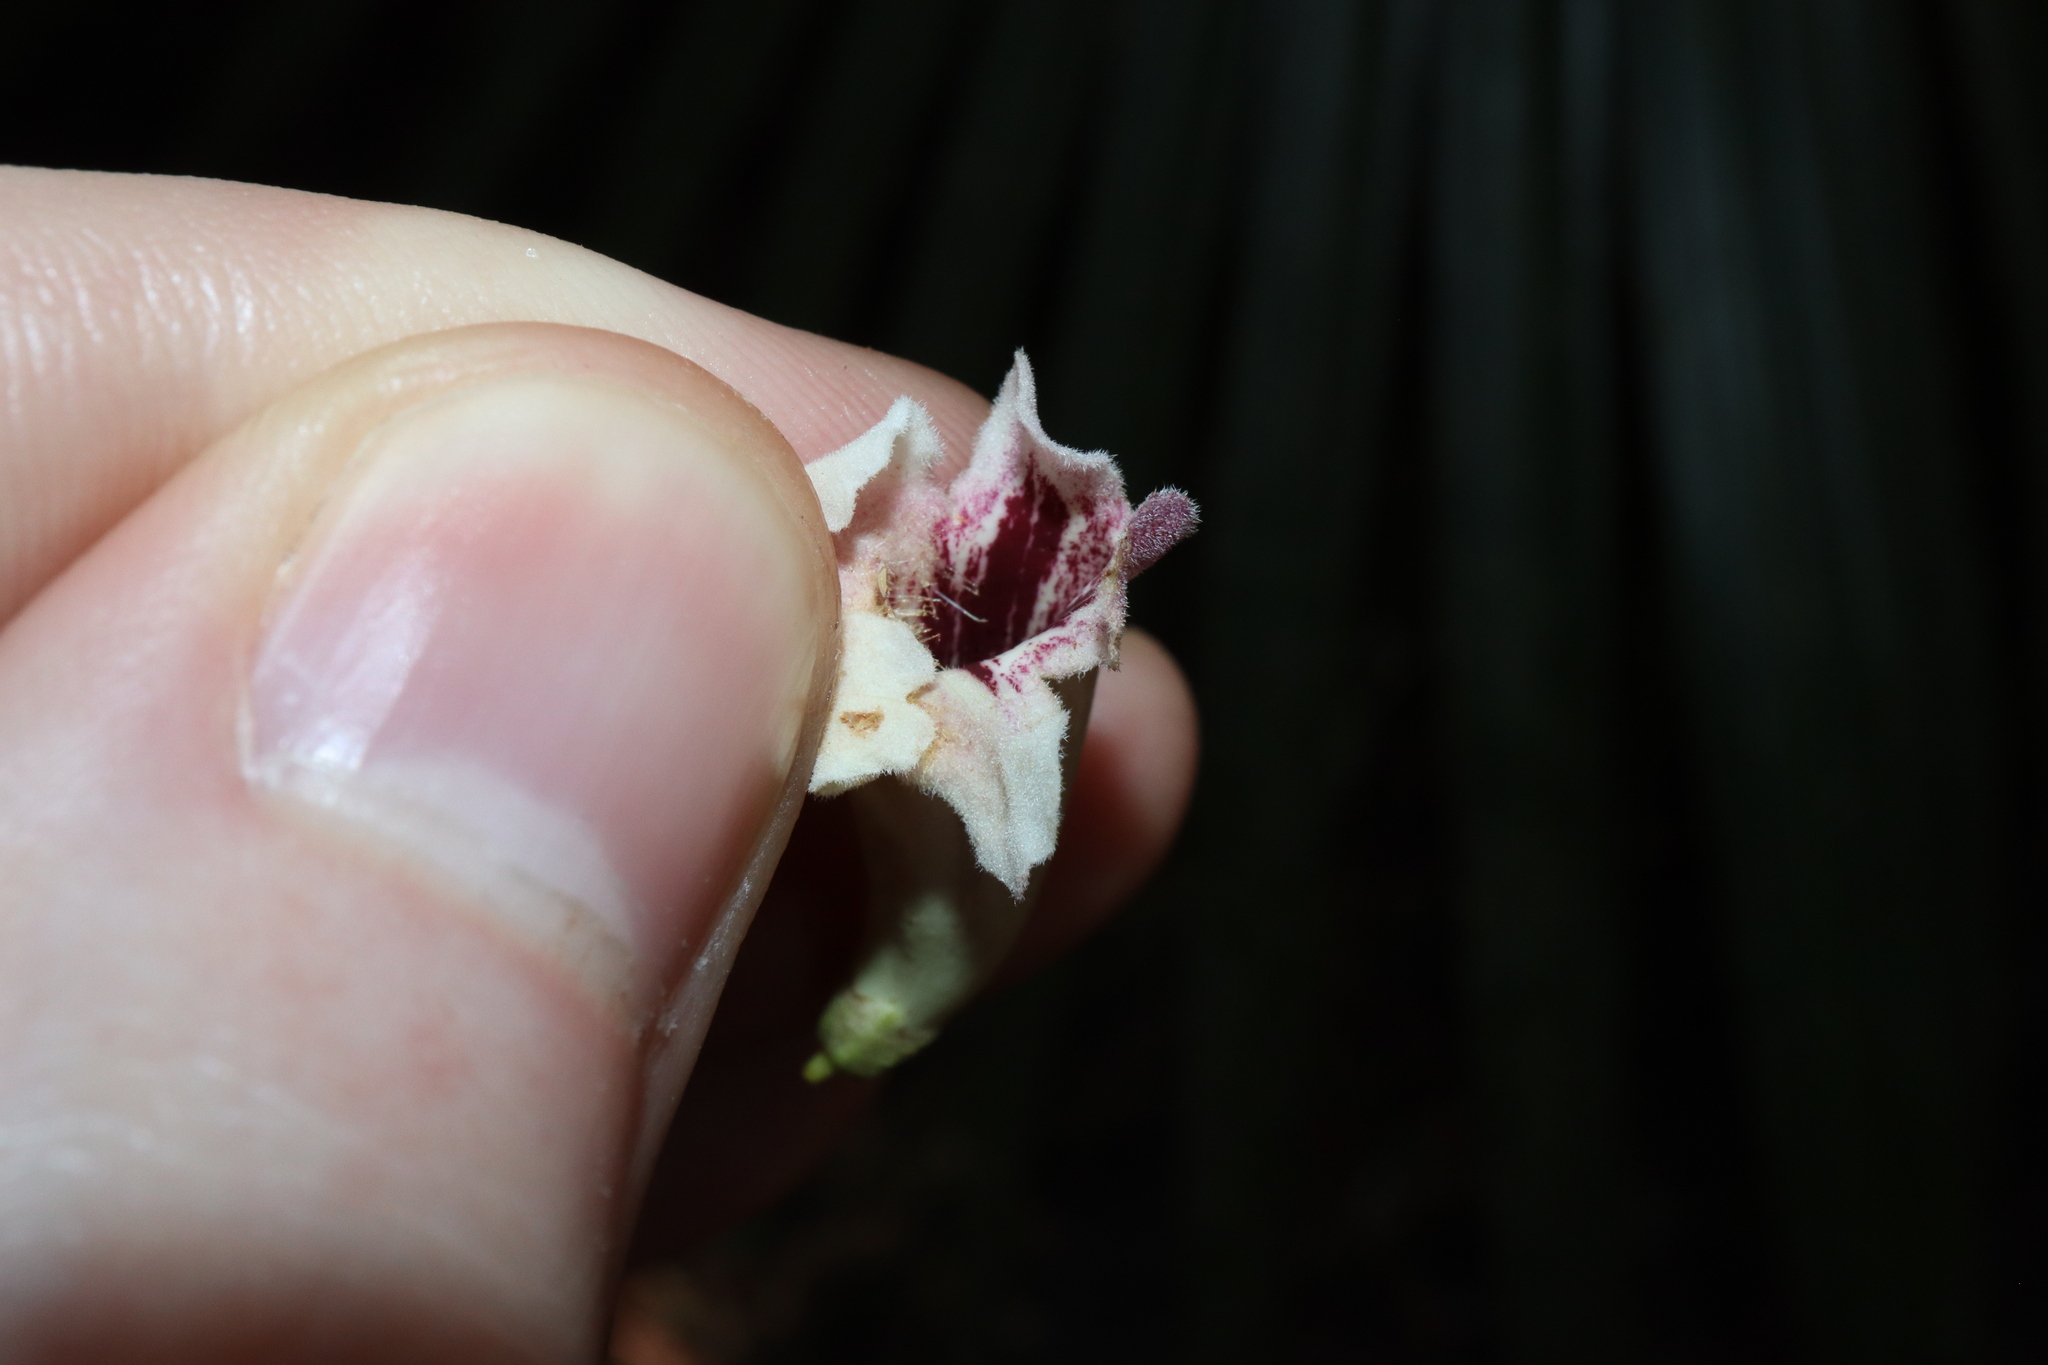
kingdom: Plantae
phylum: Tracheophyta
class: Magnoliopsida
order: Lamiales
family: Bignoniaceae
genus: Pandorea
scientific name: Pandorea pandorana
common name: Wonga-wonga-vine
